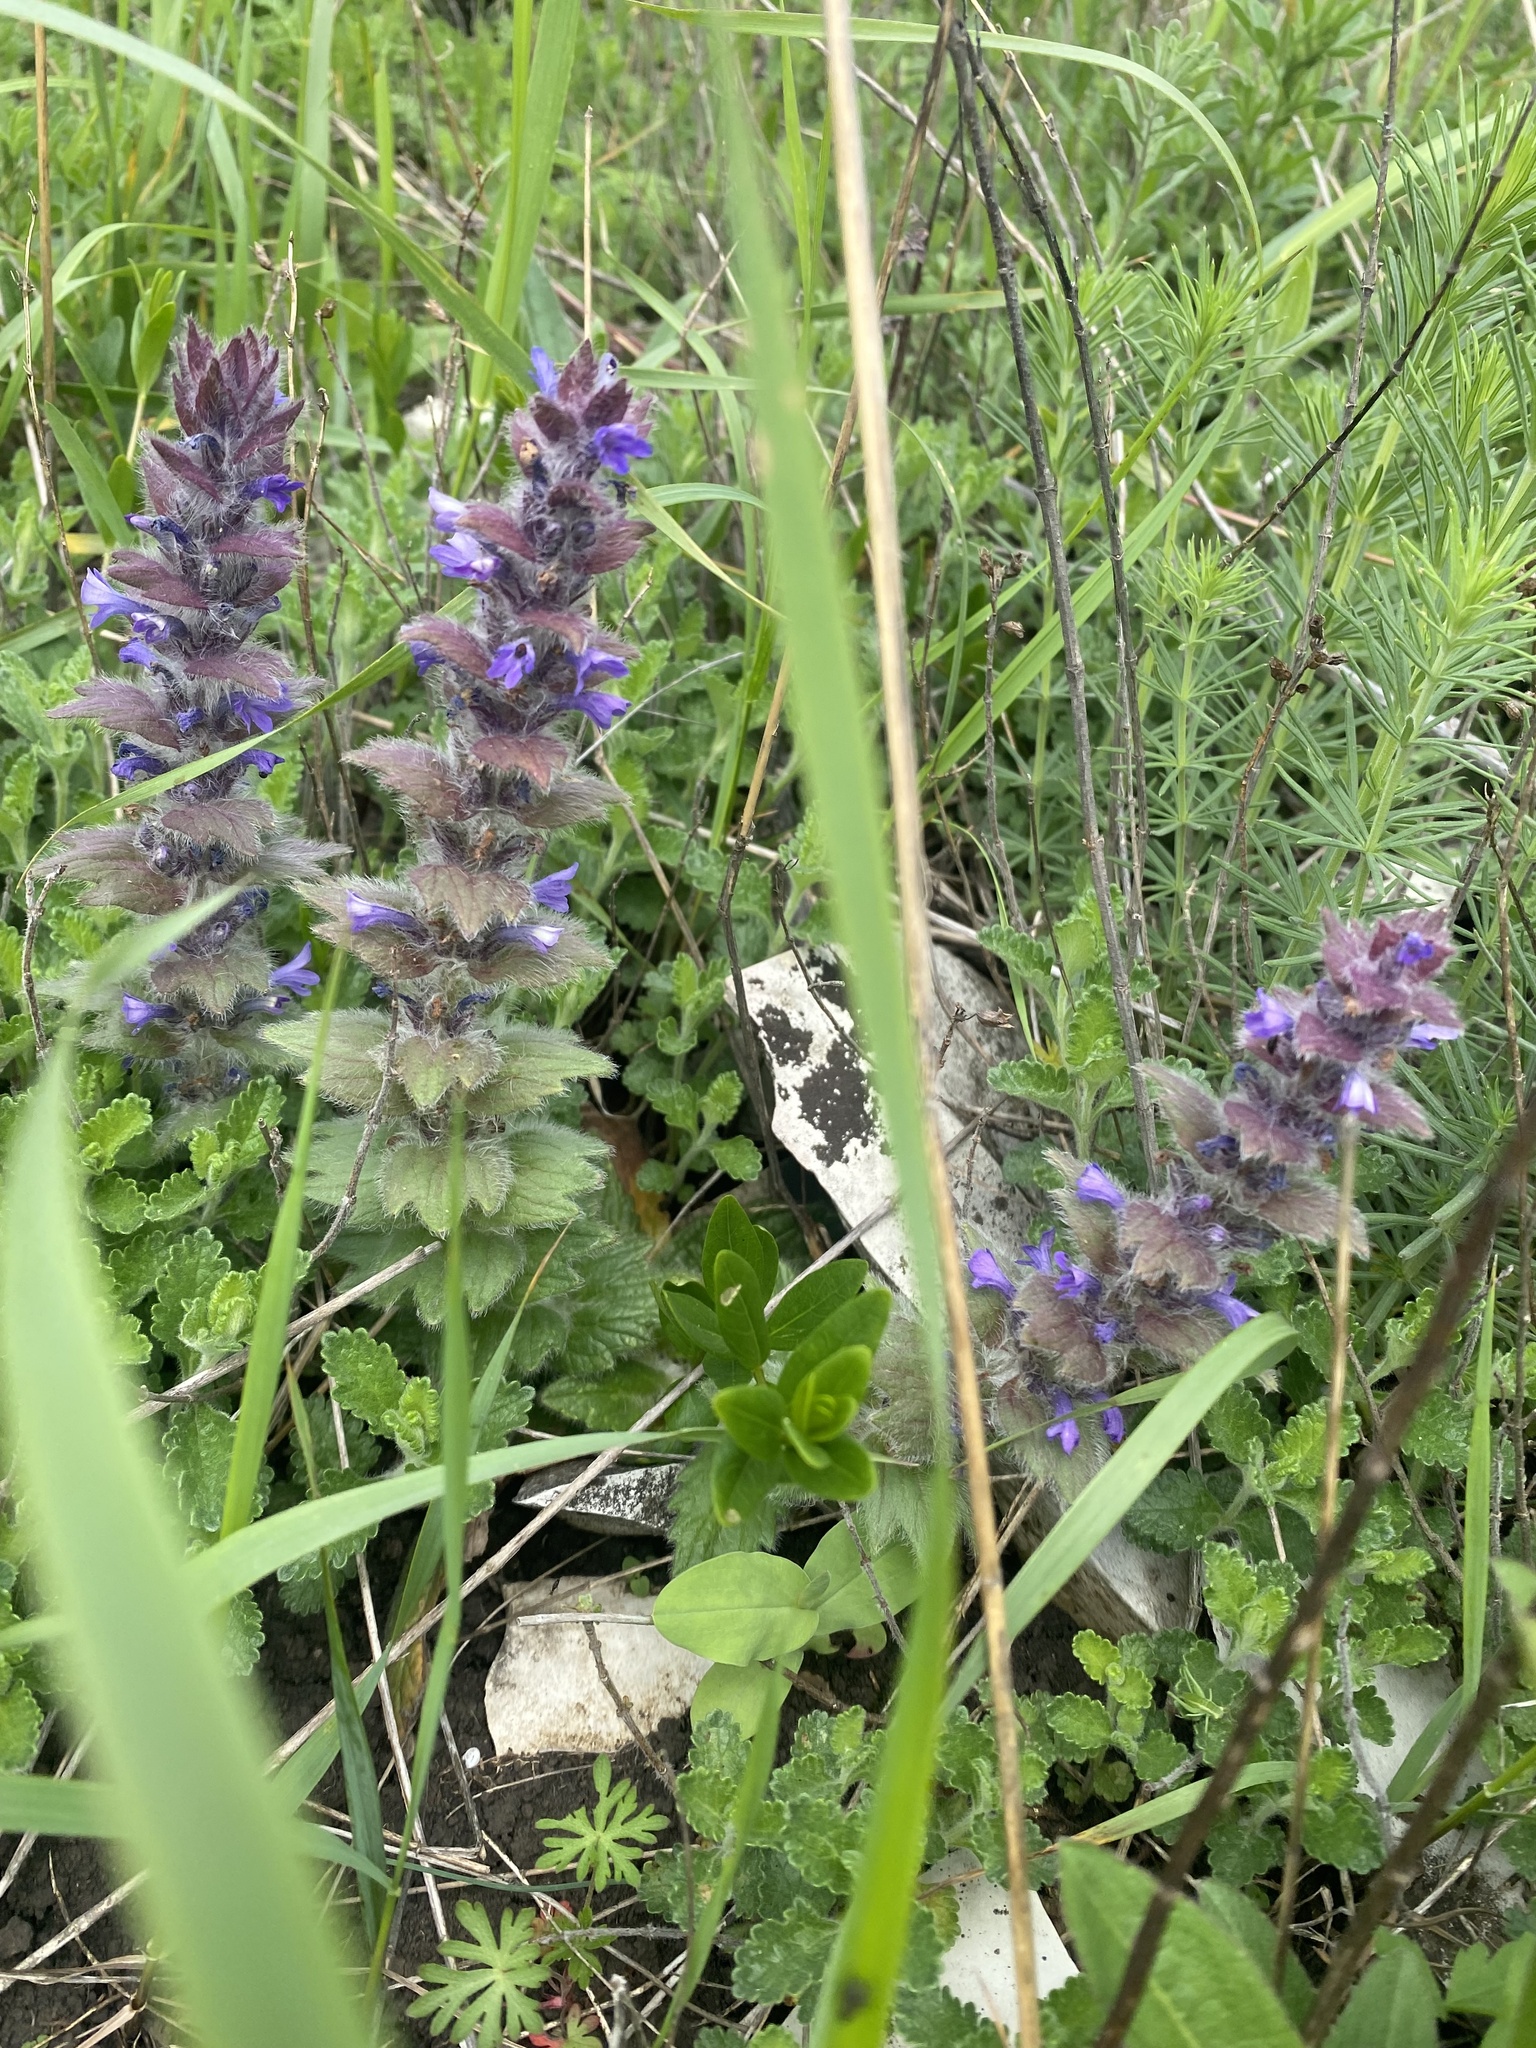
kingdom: Plantae
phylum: Tracheophyta
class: Magnoliopsida
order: Lamiales
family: Lamiaceae
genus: Ajuga
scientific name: Ajuga orientalis
